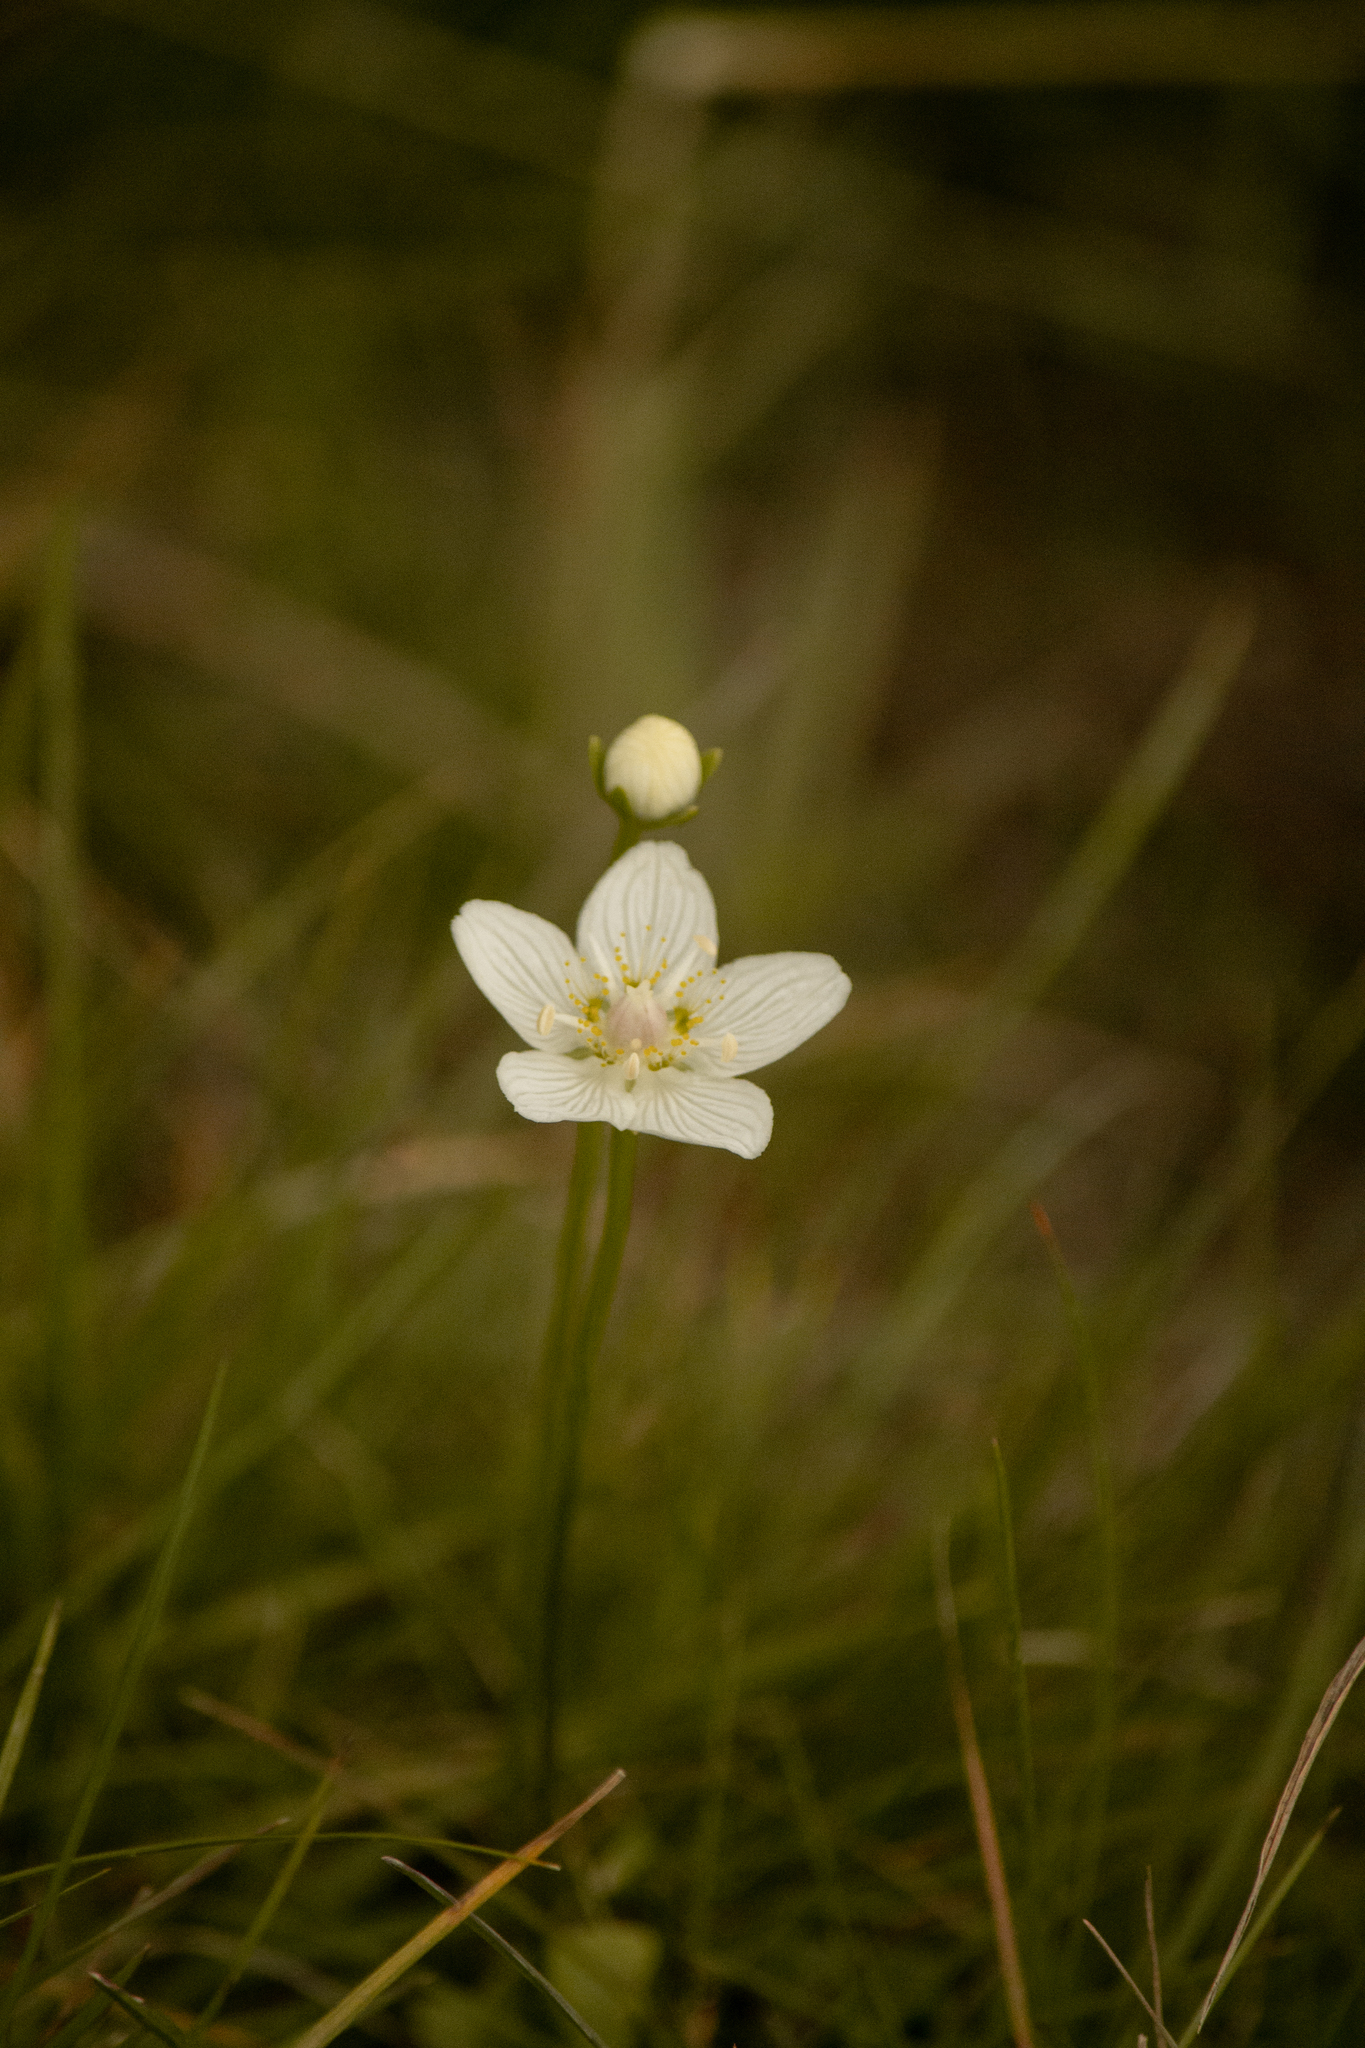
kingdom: Plantae
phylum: Tracheophyta
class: Magnoliopsida
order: Celastrales
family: Parnassiaceae
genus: Parnassia
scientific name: Parnassia palustris
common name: Grass-of-parnassus
